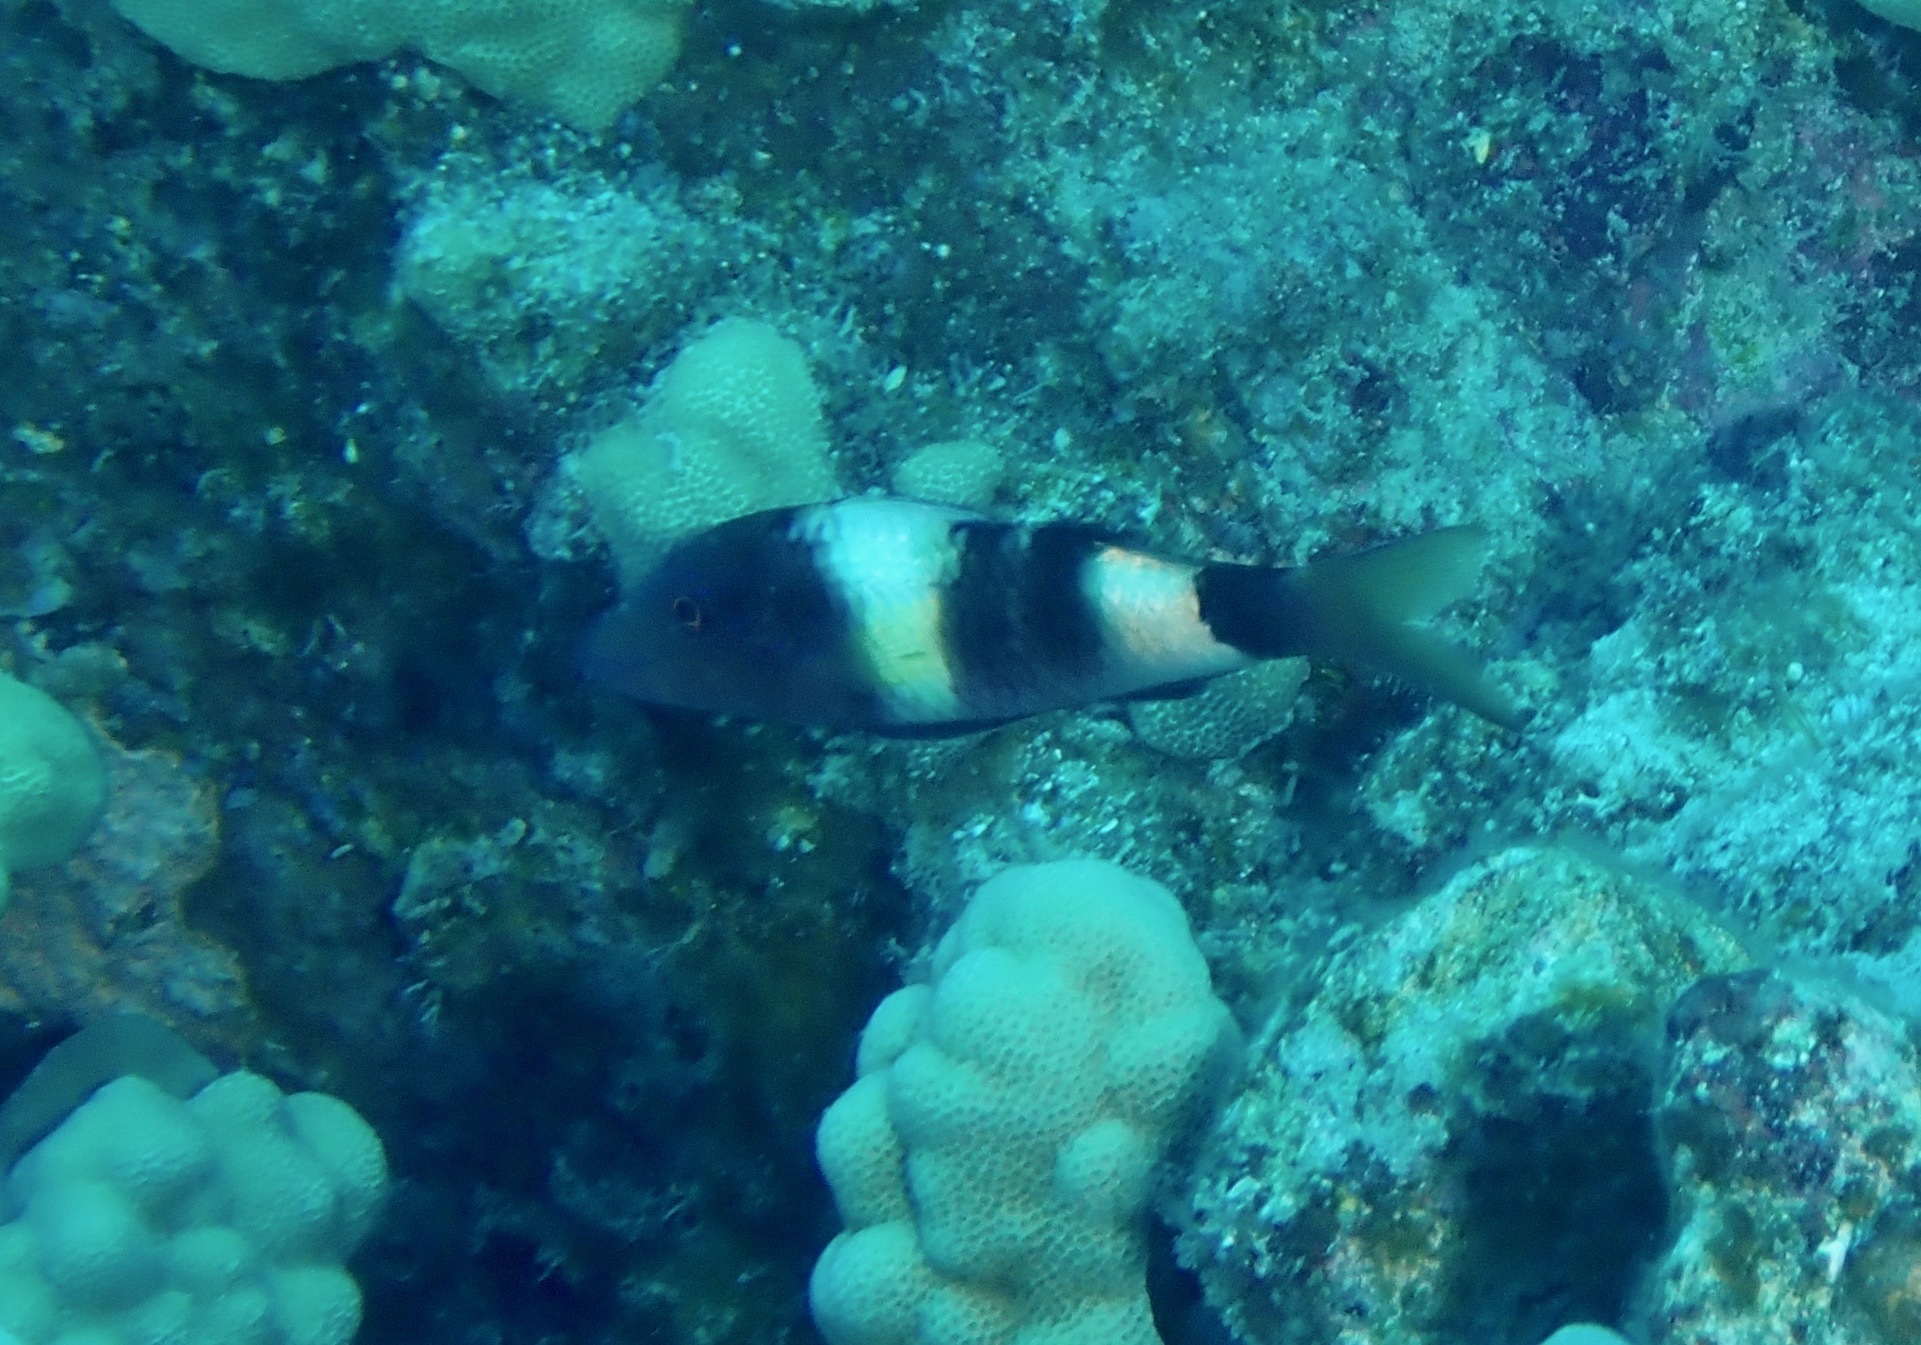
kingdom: Animalia
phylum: Chordata
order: Perciformes
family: Mullidae
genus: Parupeneus
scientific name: Parupeneus multifasciatus
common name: Manybar goatfish
